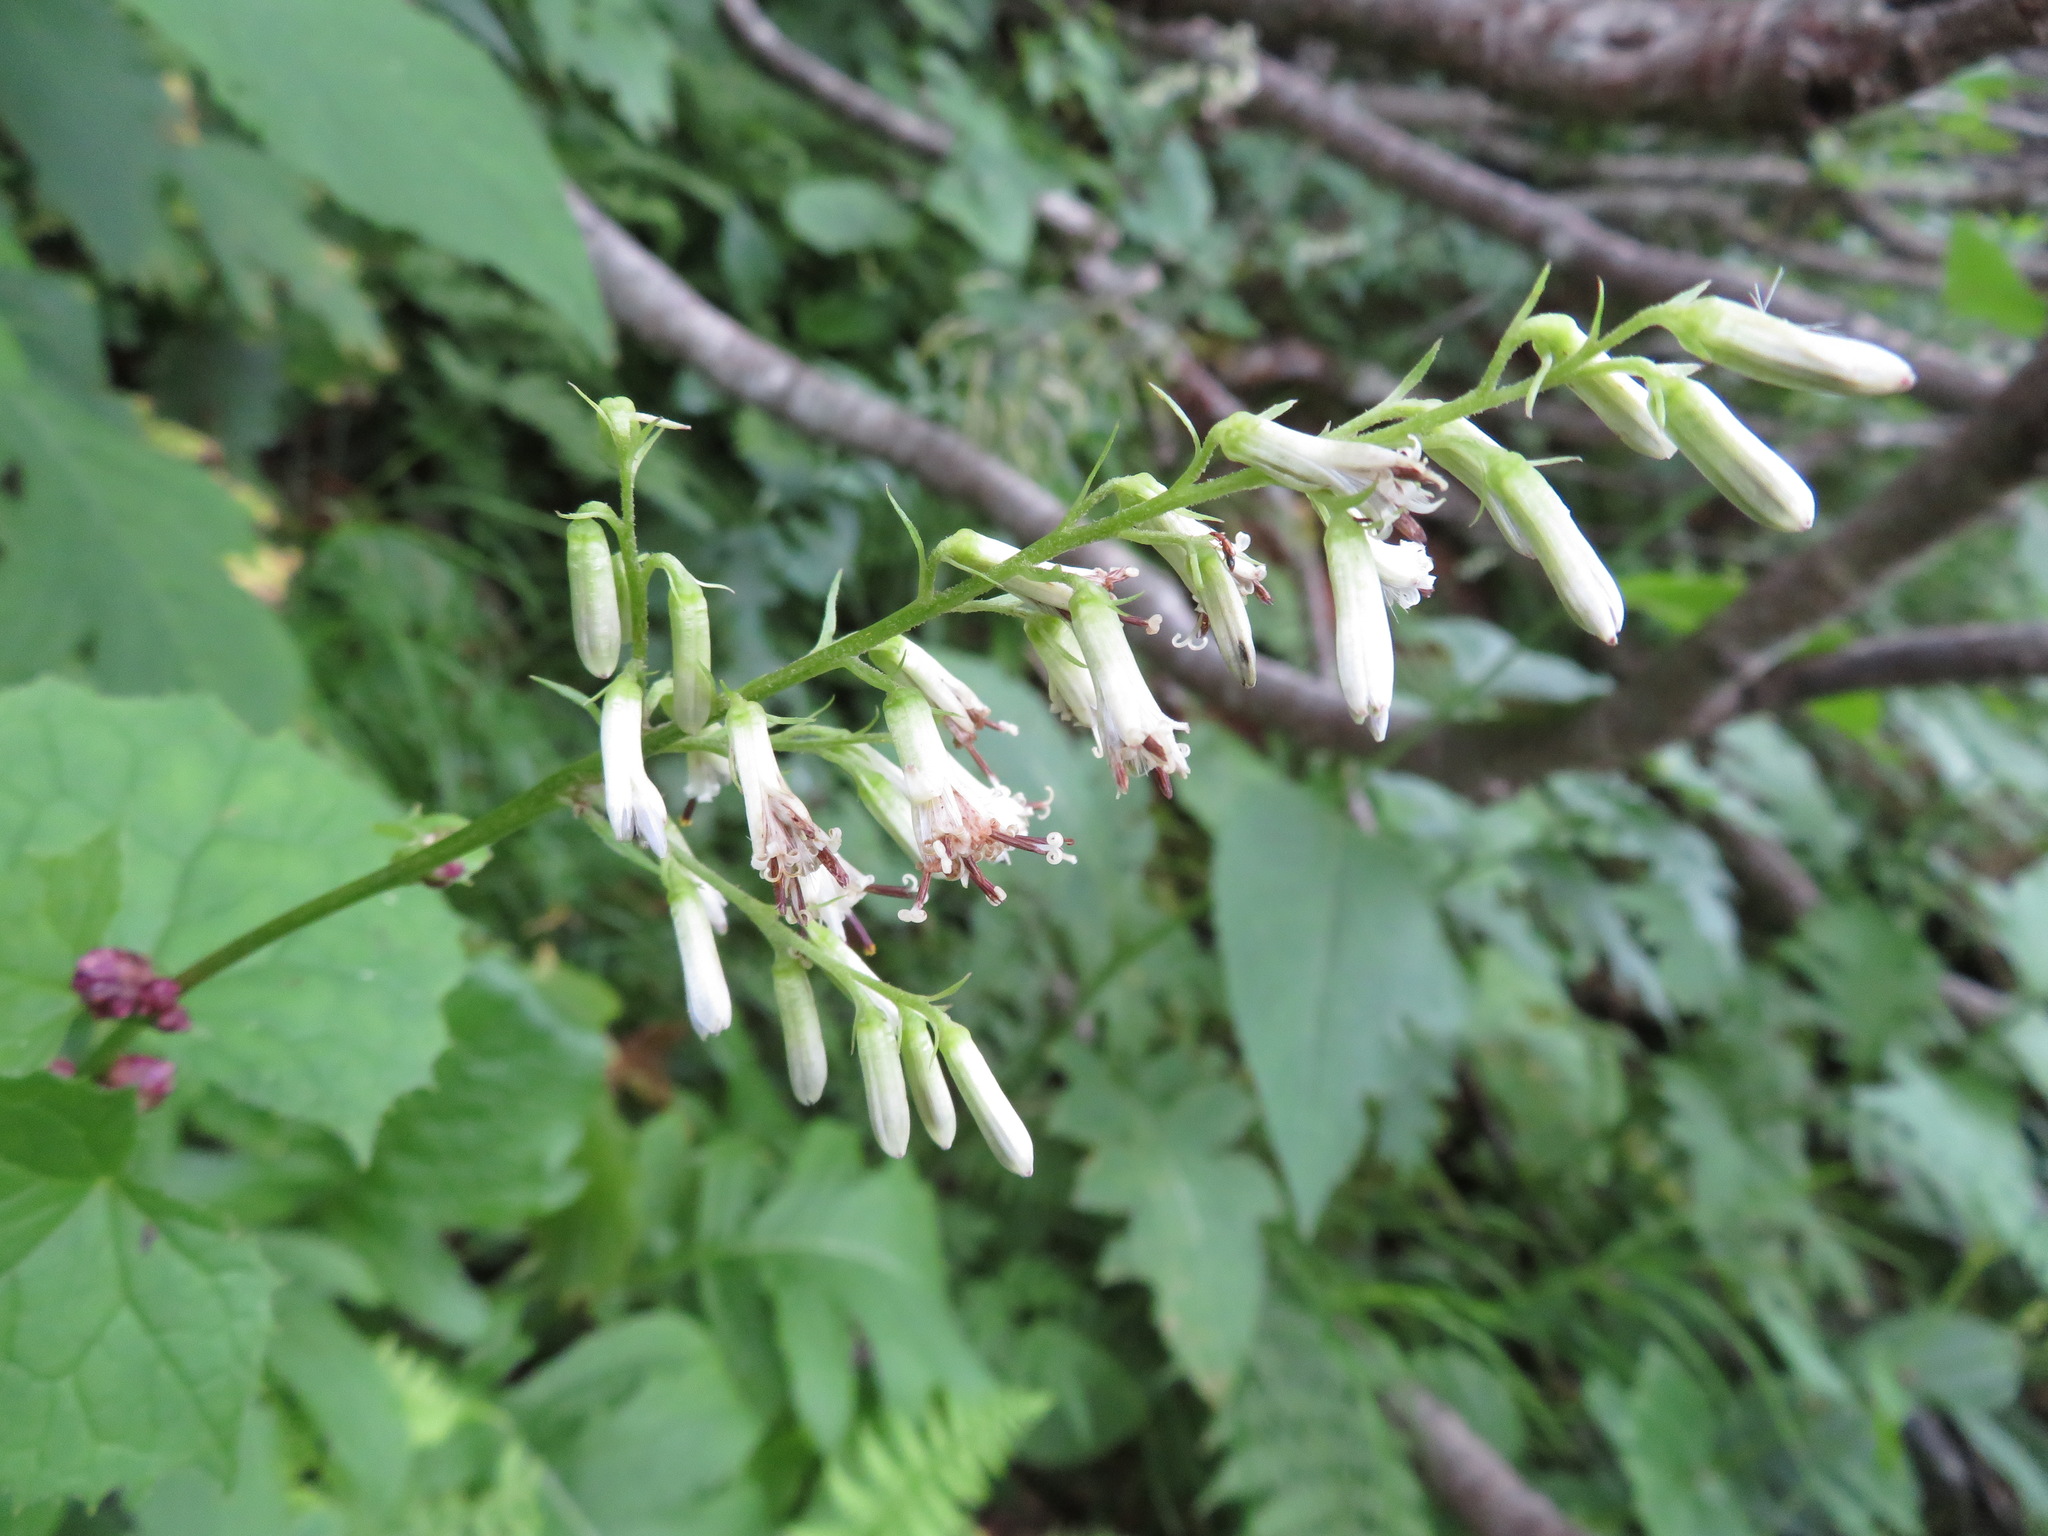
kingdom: Plantae
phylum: Tracheophyta
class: Magnoliopsida
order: Asterales
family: Asteraceae
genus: Parasenecio
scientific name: Parasenecio auriculata
